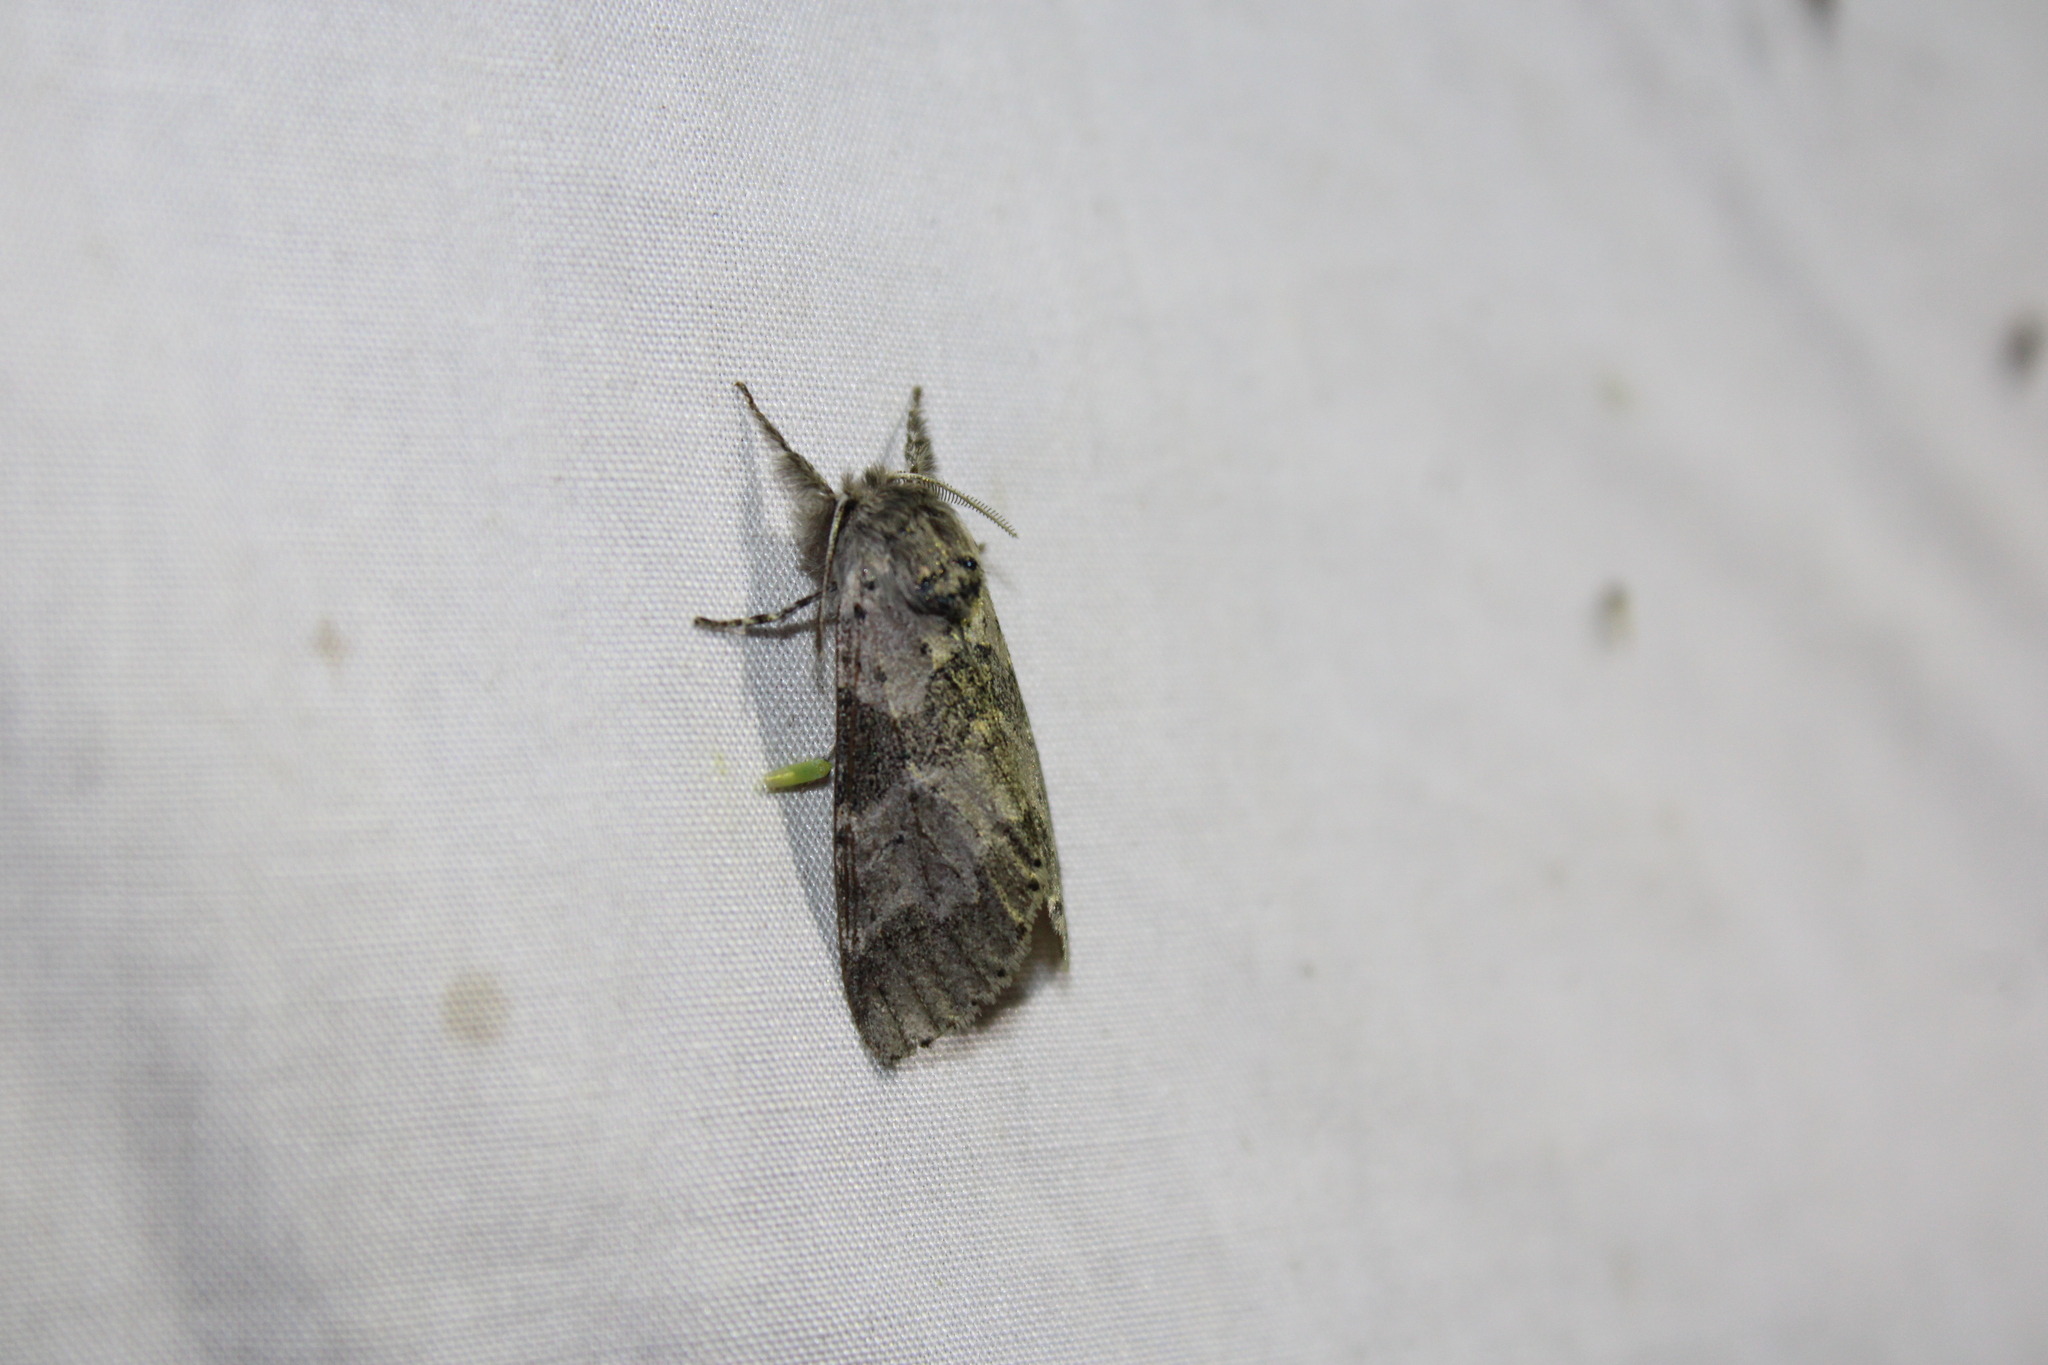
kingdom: Animalia
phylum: Arthropoda
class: Insecta
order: Lepidoptera
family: Notodontidae
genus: Furcula
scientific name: Furcula cinerea
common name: Gray furcula
